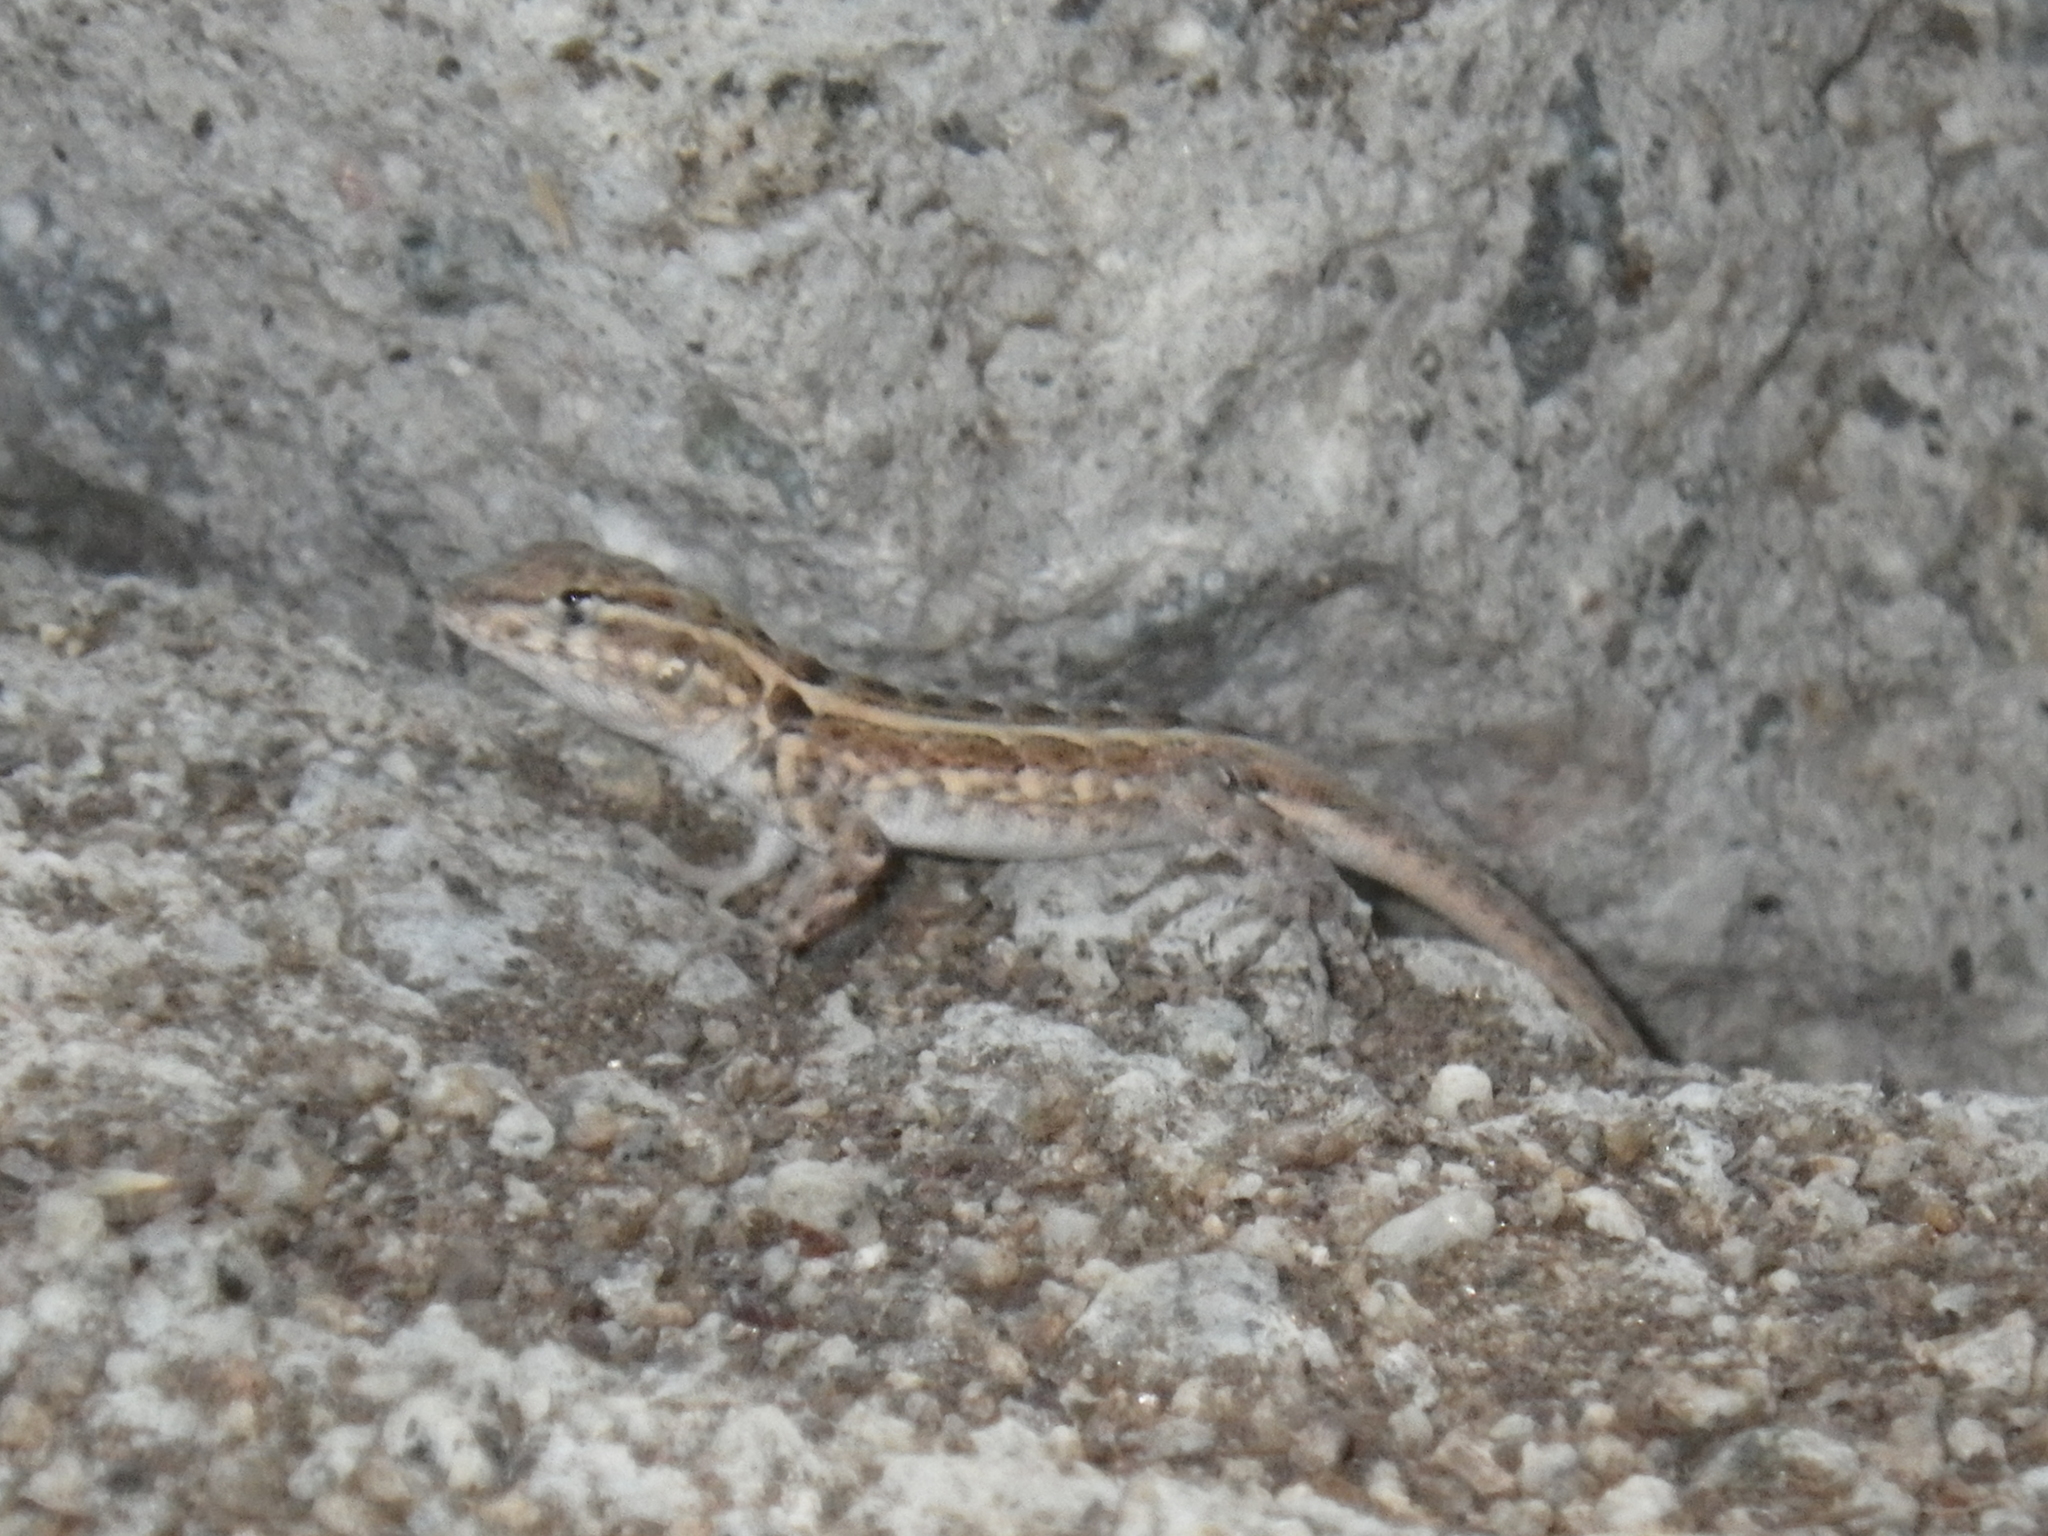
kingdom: Animalia
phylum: Chordata
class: Squamata
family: Phrynosomatidae
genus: Uta
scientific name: Uta stansburiana
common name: Side-blotched lizard
